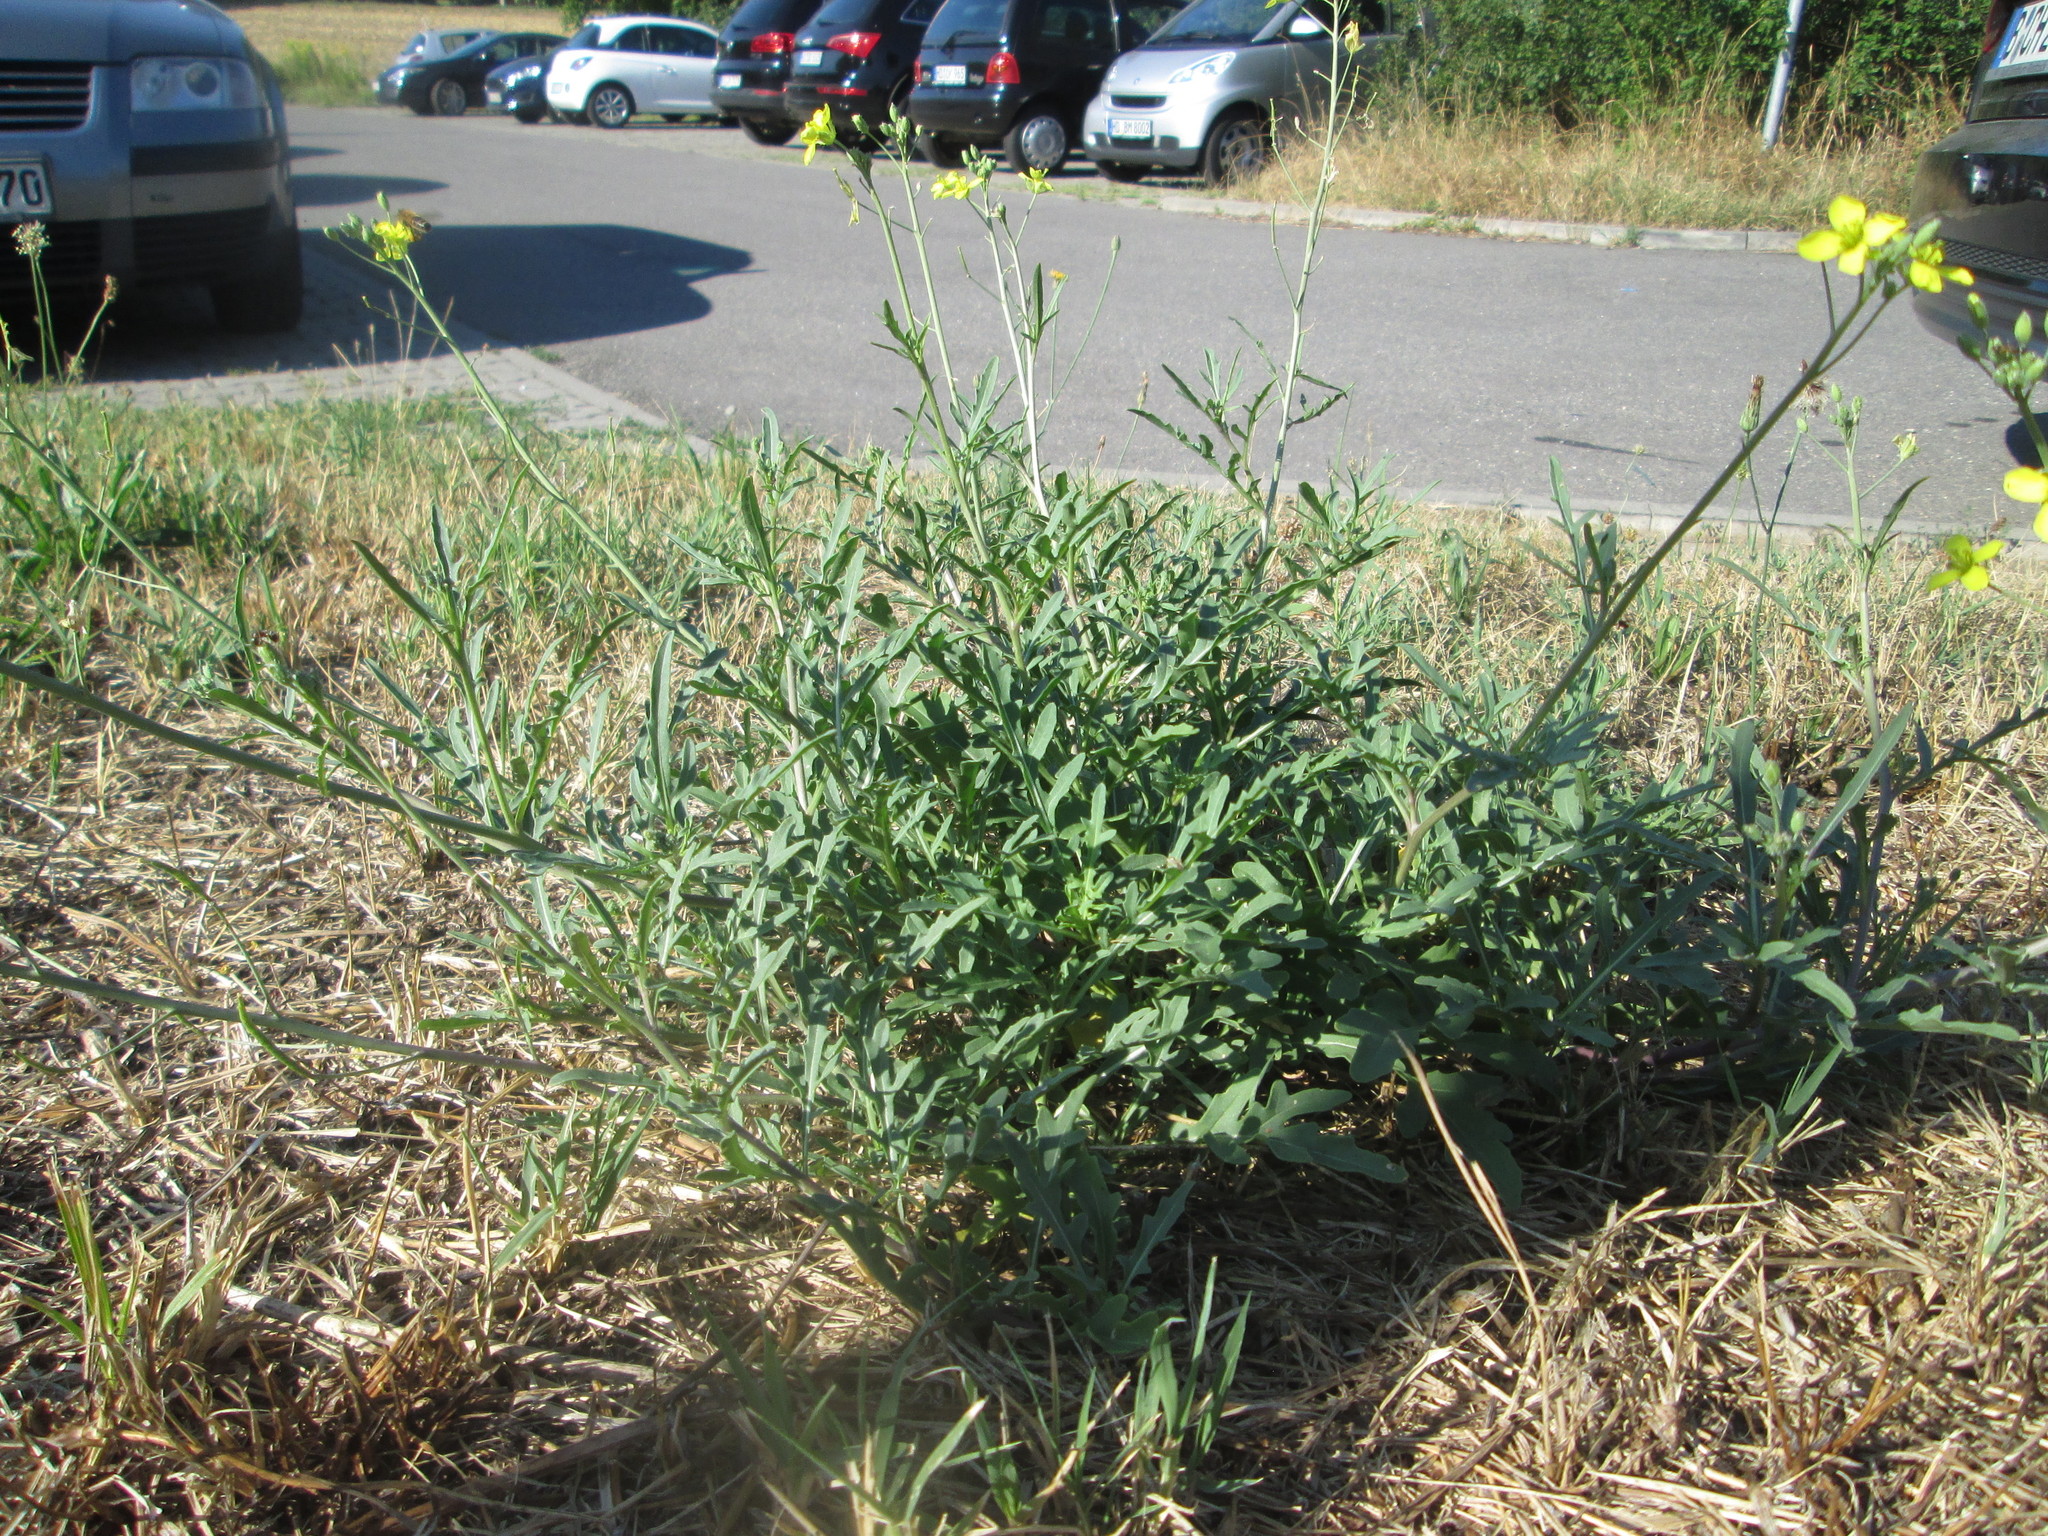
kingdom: Plantae
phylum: Tracheophyta
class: Magnoliopsida
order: Brassicales
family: Brassicaceae
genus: Diplotaxis
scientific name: Diplotaxis tenuifolia
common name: Perennial wall-rocket
